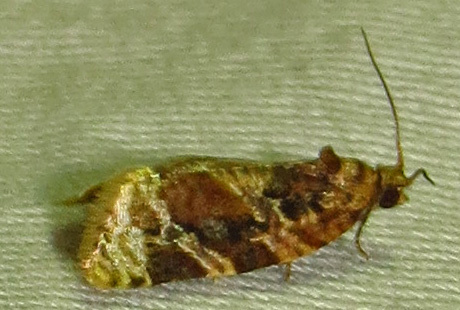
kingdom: Animalia
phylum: Arthropoda
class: Insecta
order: Lepidoptera
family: Tortricidae
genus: Argyrotaenia
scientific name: Argyrotaenia velutinana
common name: Red-banded leafroller moth
